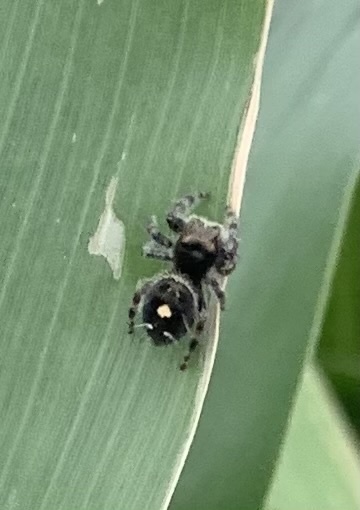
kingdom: Animalia
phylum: Arthropoda
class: Arachnida
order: Araneae
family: Salticidae
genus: Phidippus
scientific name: Phidippus audax
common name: Bold jumper
